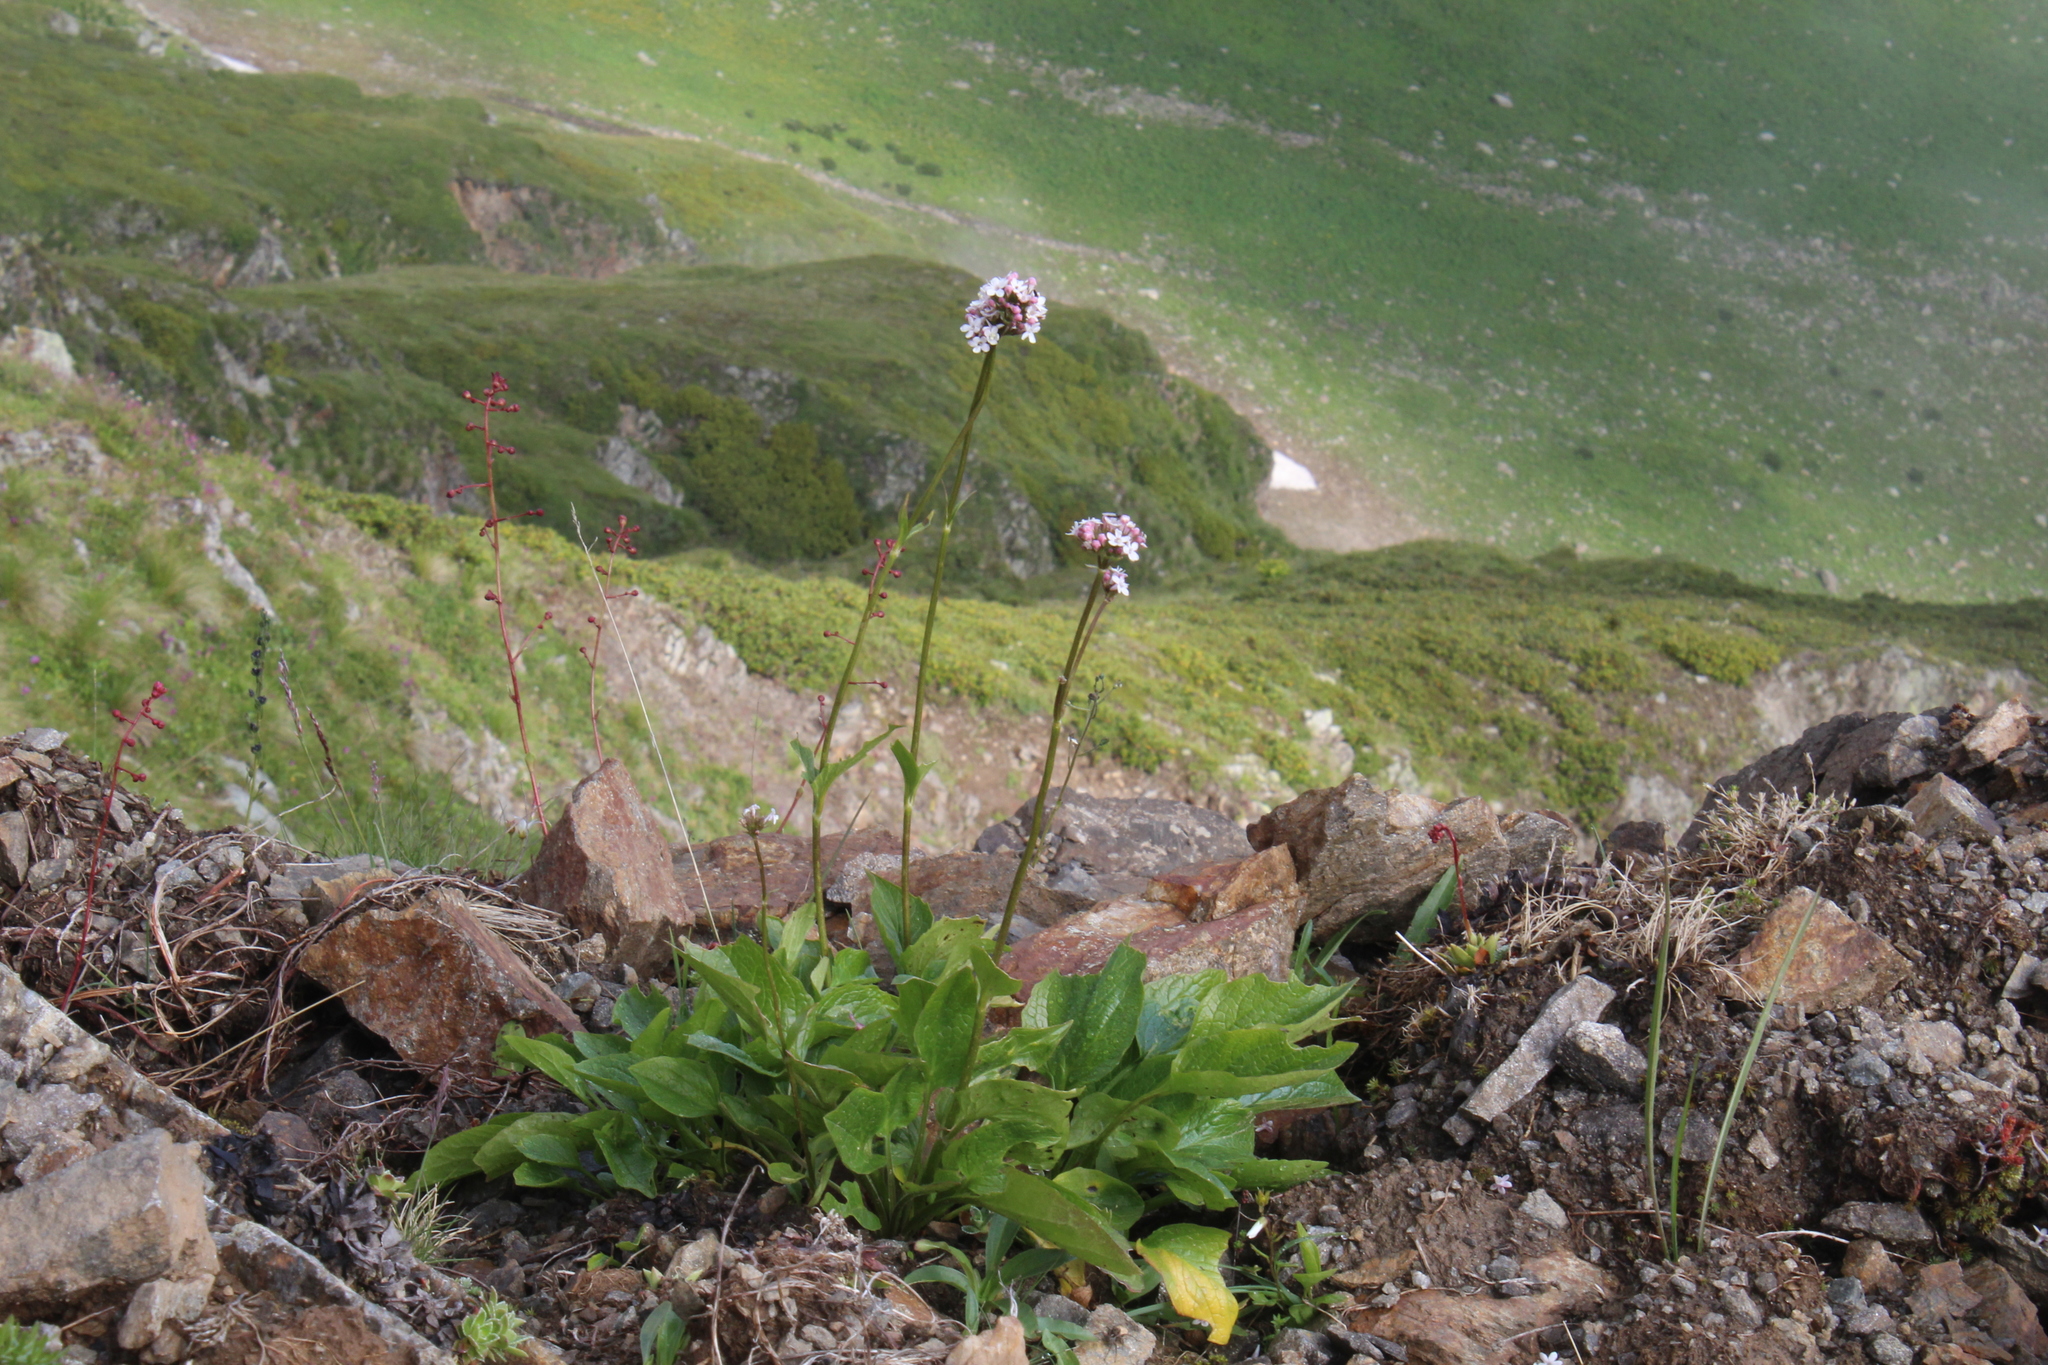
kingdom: Plantae
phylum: Tracheophyta
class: Magnoliopsida
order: Dipsacales
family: Caprifoliaceae
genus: Valeriana
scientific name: Valeriana alpestris
